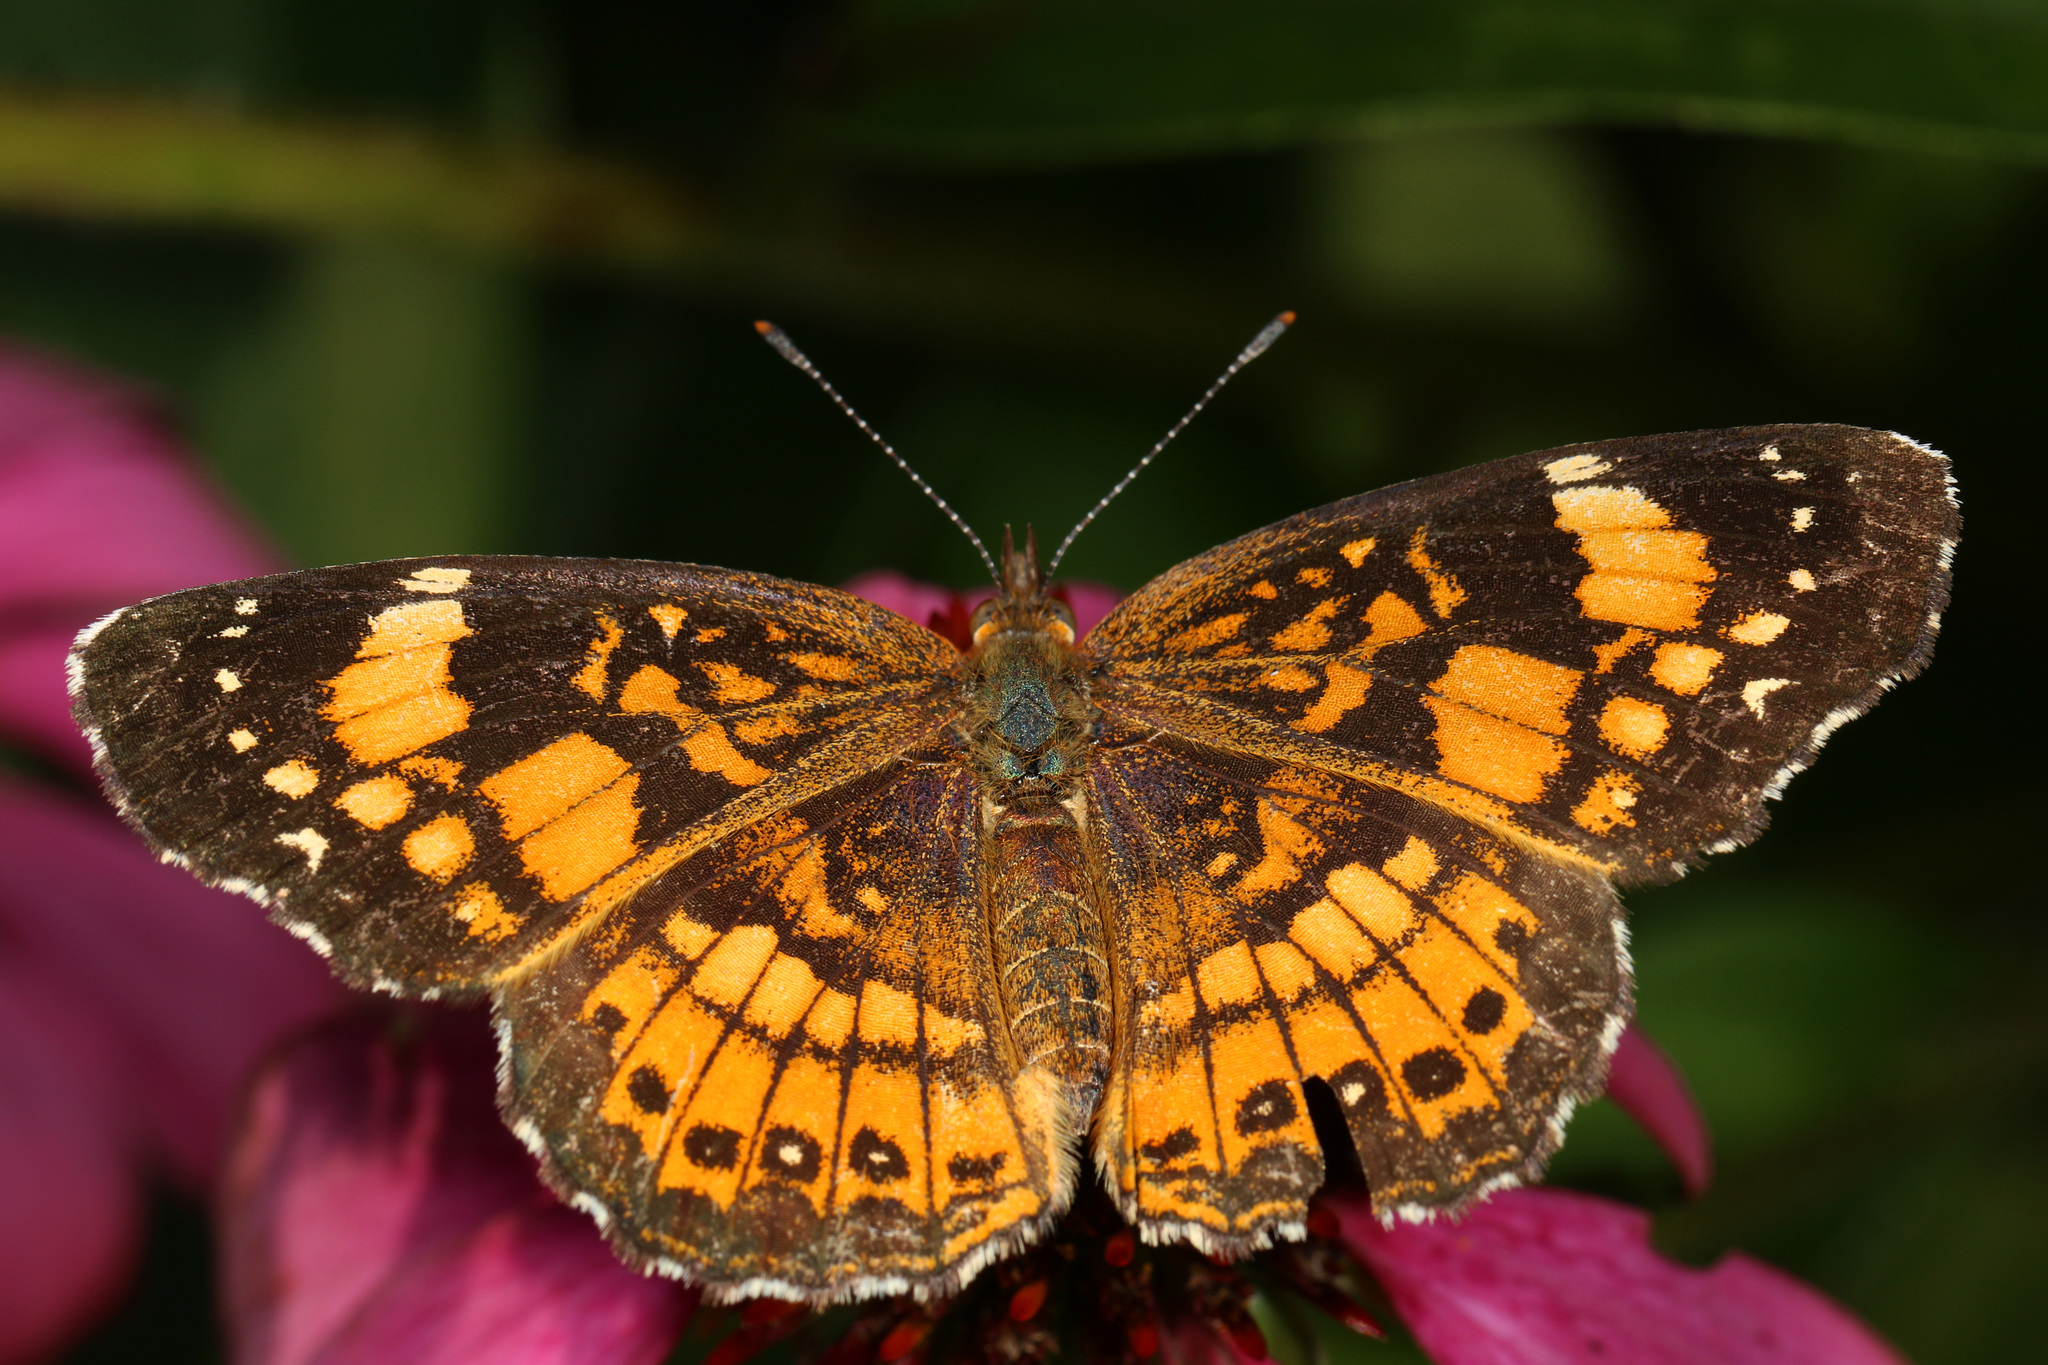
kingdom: Animalia
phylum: Arthropoda
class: Insecta
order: Lepidoptera
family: Nymphalidae
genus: Chlosyne
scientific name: Chlosyne nycteis
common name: Silvery checkerspot
